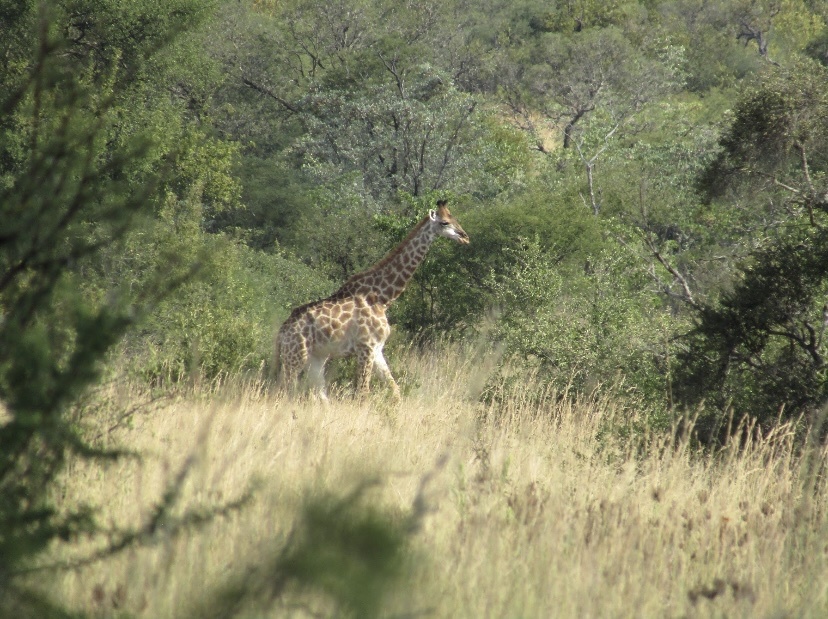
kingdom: Animalia
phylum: Chordata
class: Mammalia
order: Artiodactyla
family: Giraffidae
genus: Giraffa
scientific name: Giraffa giraffa
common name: Southern giraffe
